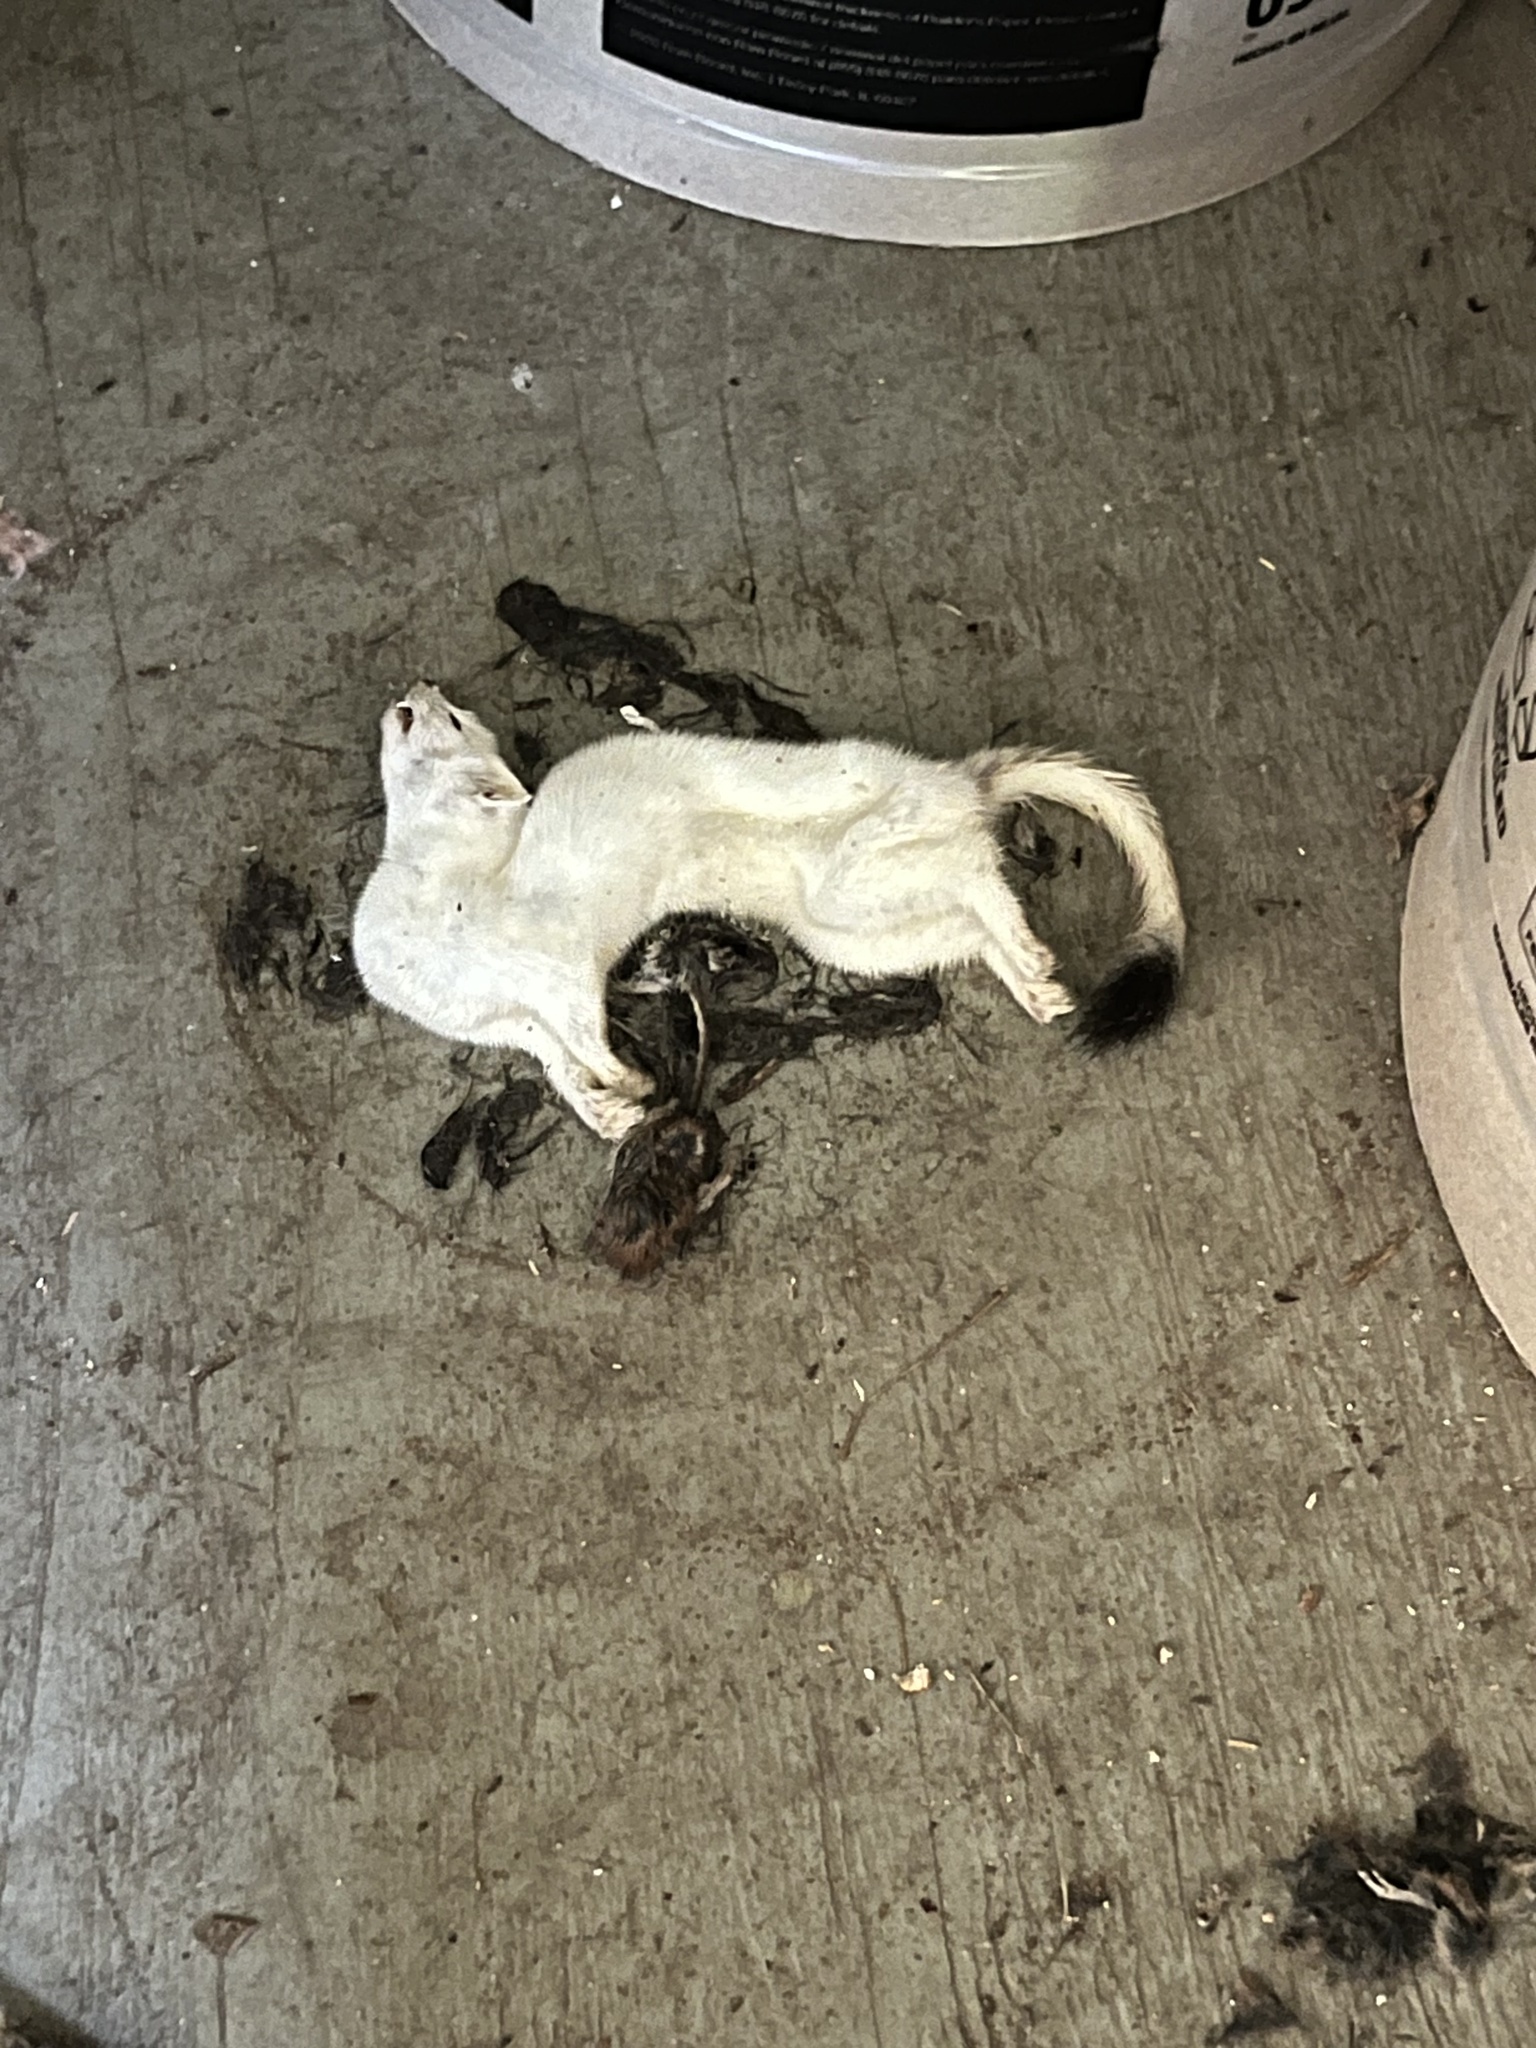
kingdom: Animalia
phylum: Chordata
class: Mammalia
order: Carnivora
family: Mustelidae
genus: Mustela
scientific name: Mustela
